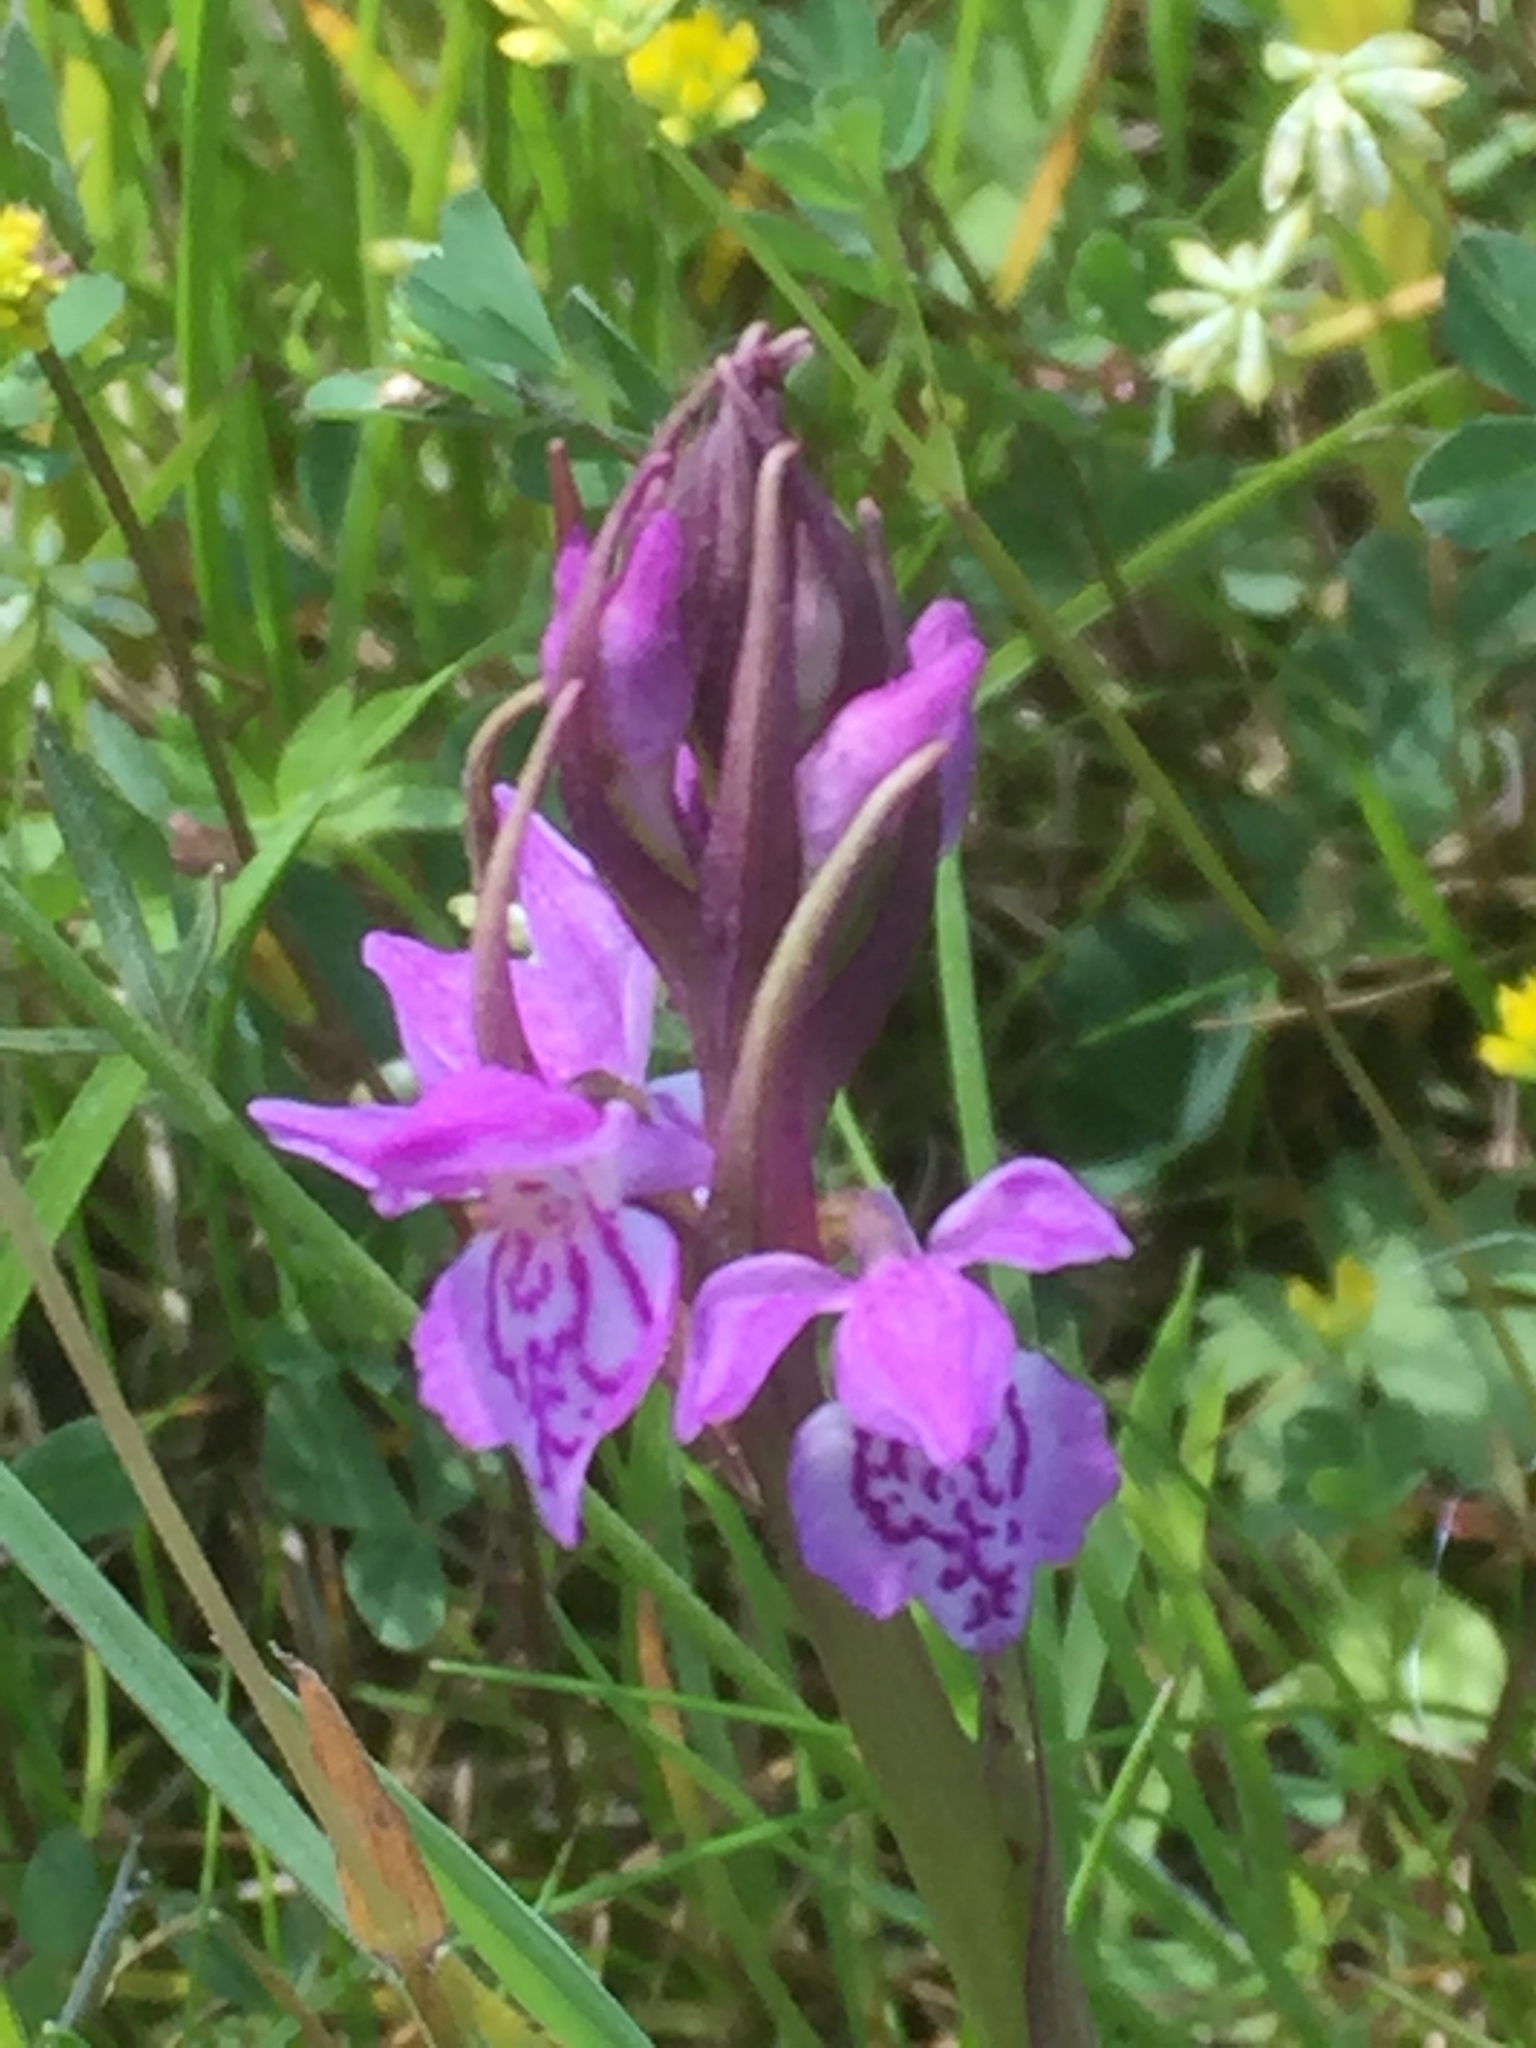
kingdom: Plantae
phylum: Tracheophyta
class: Liliopsida
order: Asparagales
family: Orchidaceae
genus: Dactylorhiza
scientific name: Dactylorhiza majalis
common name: Marsh orchid
